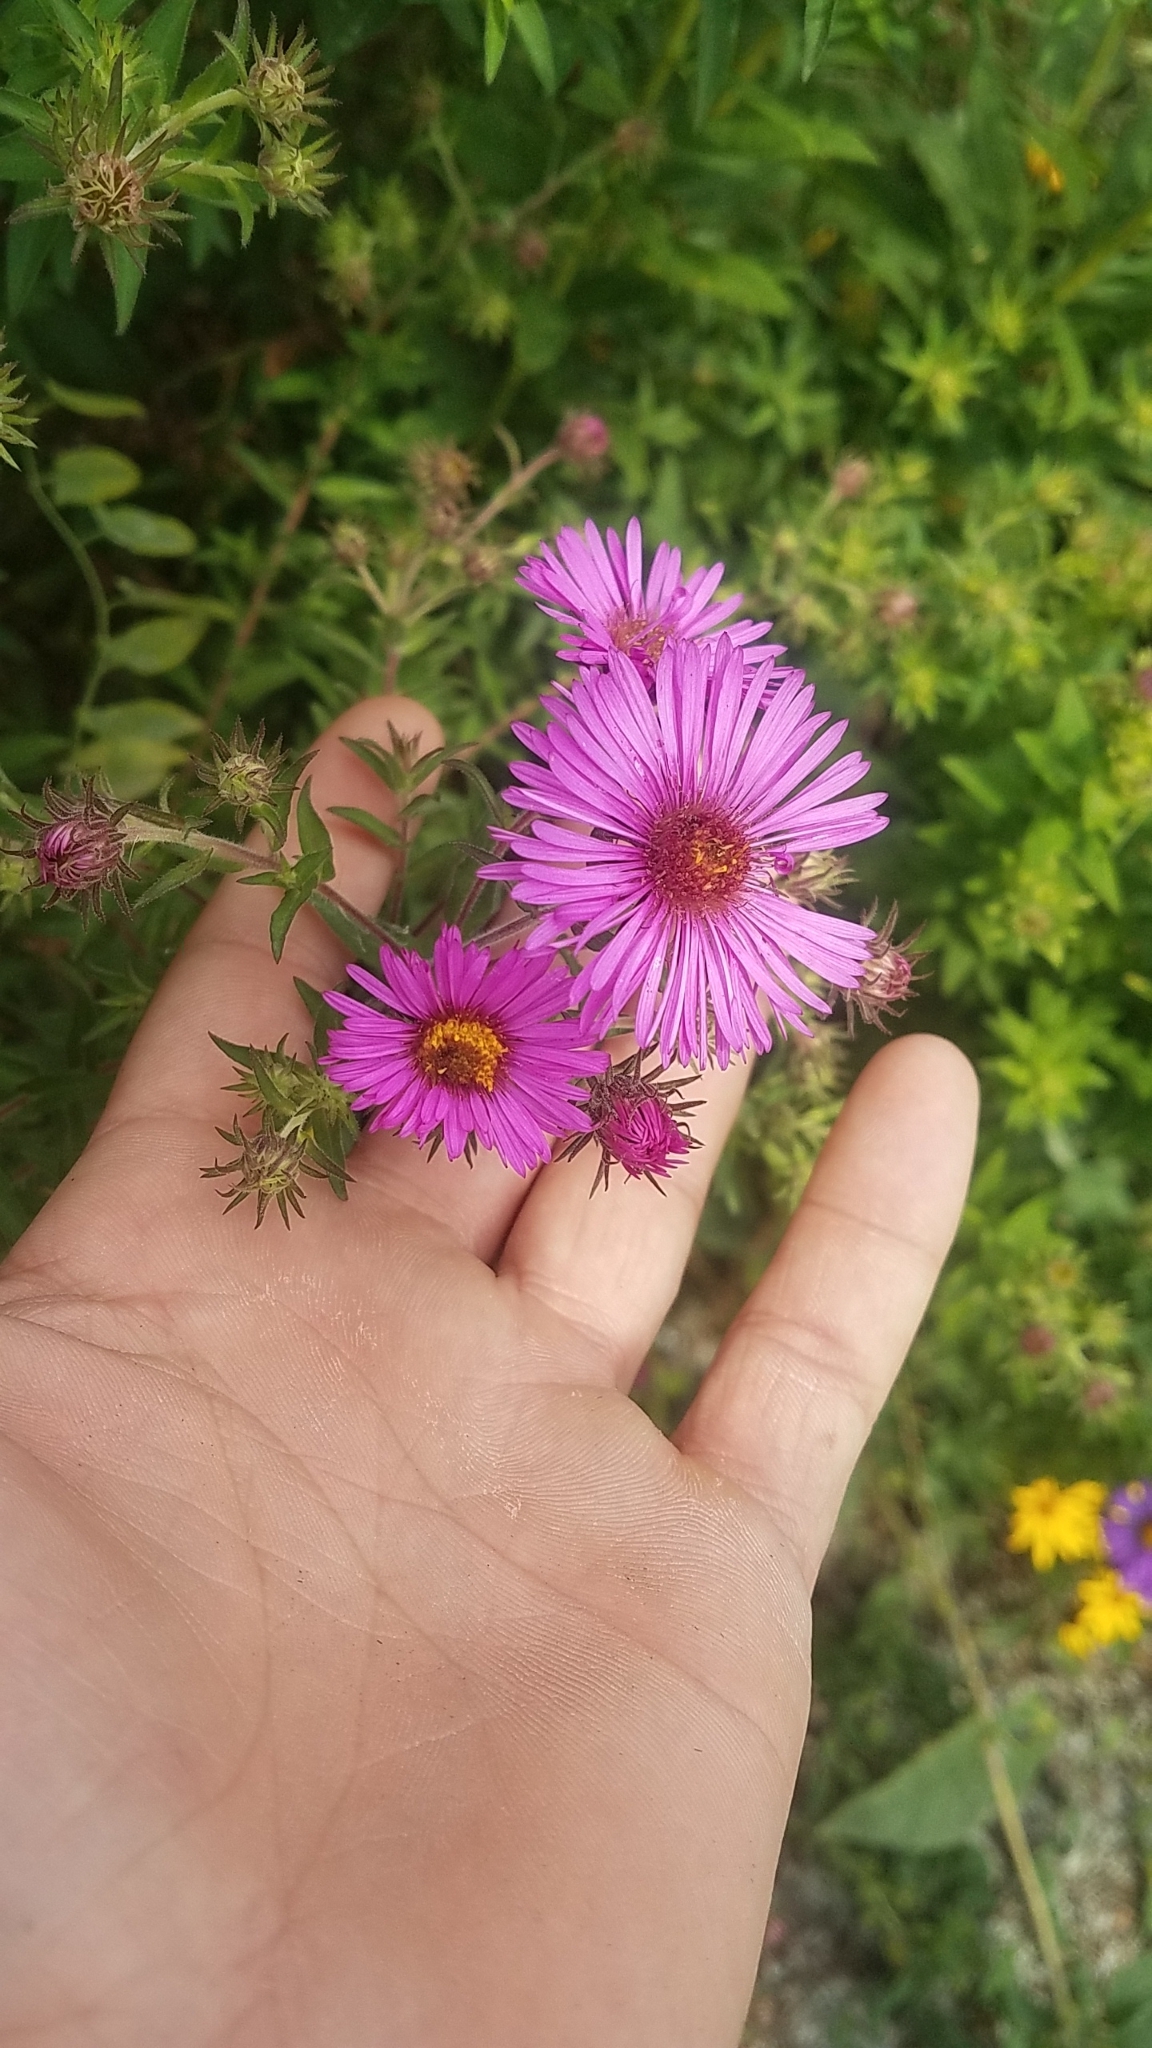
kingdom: Plantae
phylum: Tracheophyta
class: Magnoliopsida
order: Asterales
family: Asteraceae
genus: Symphyotrichum
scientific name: Symphyotrichum novae-angliae
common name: Michaelmas daisy
